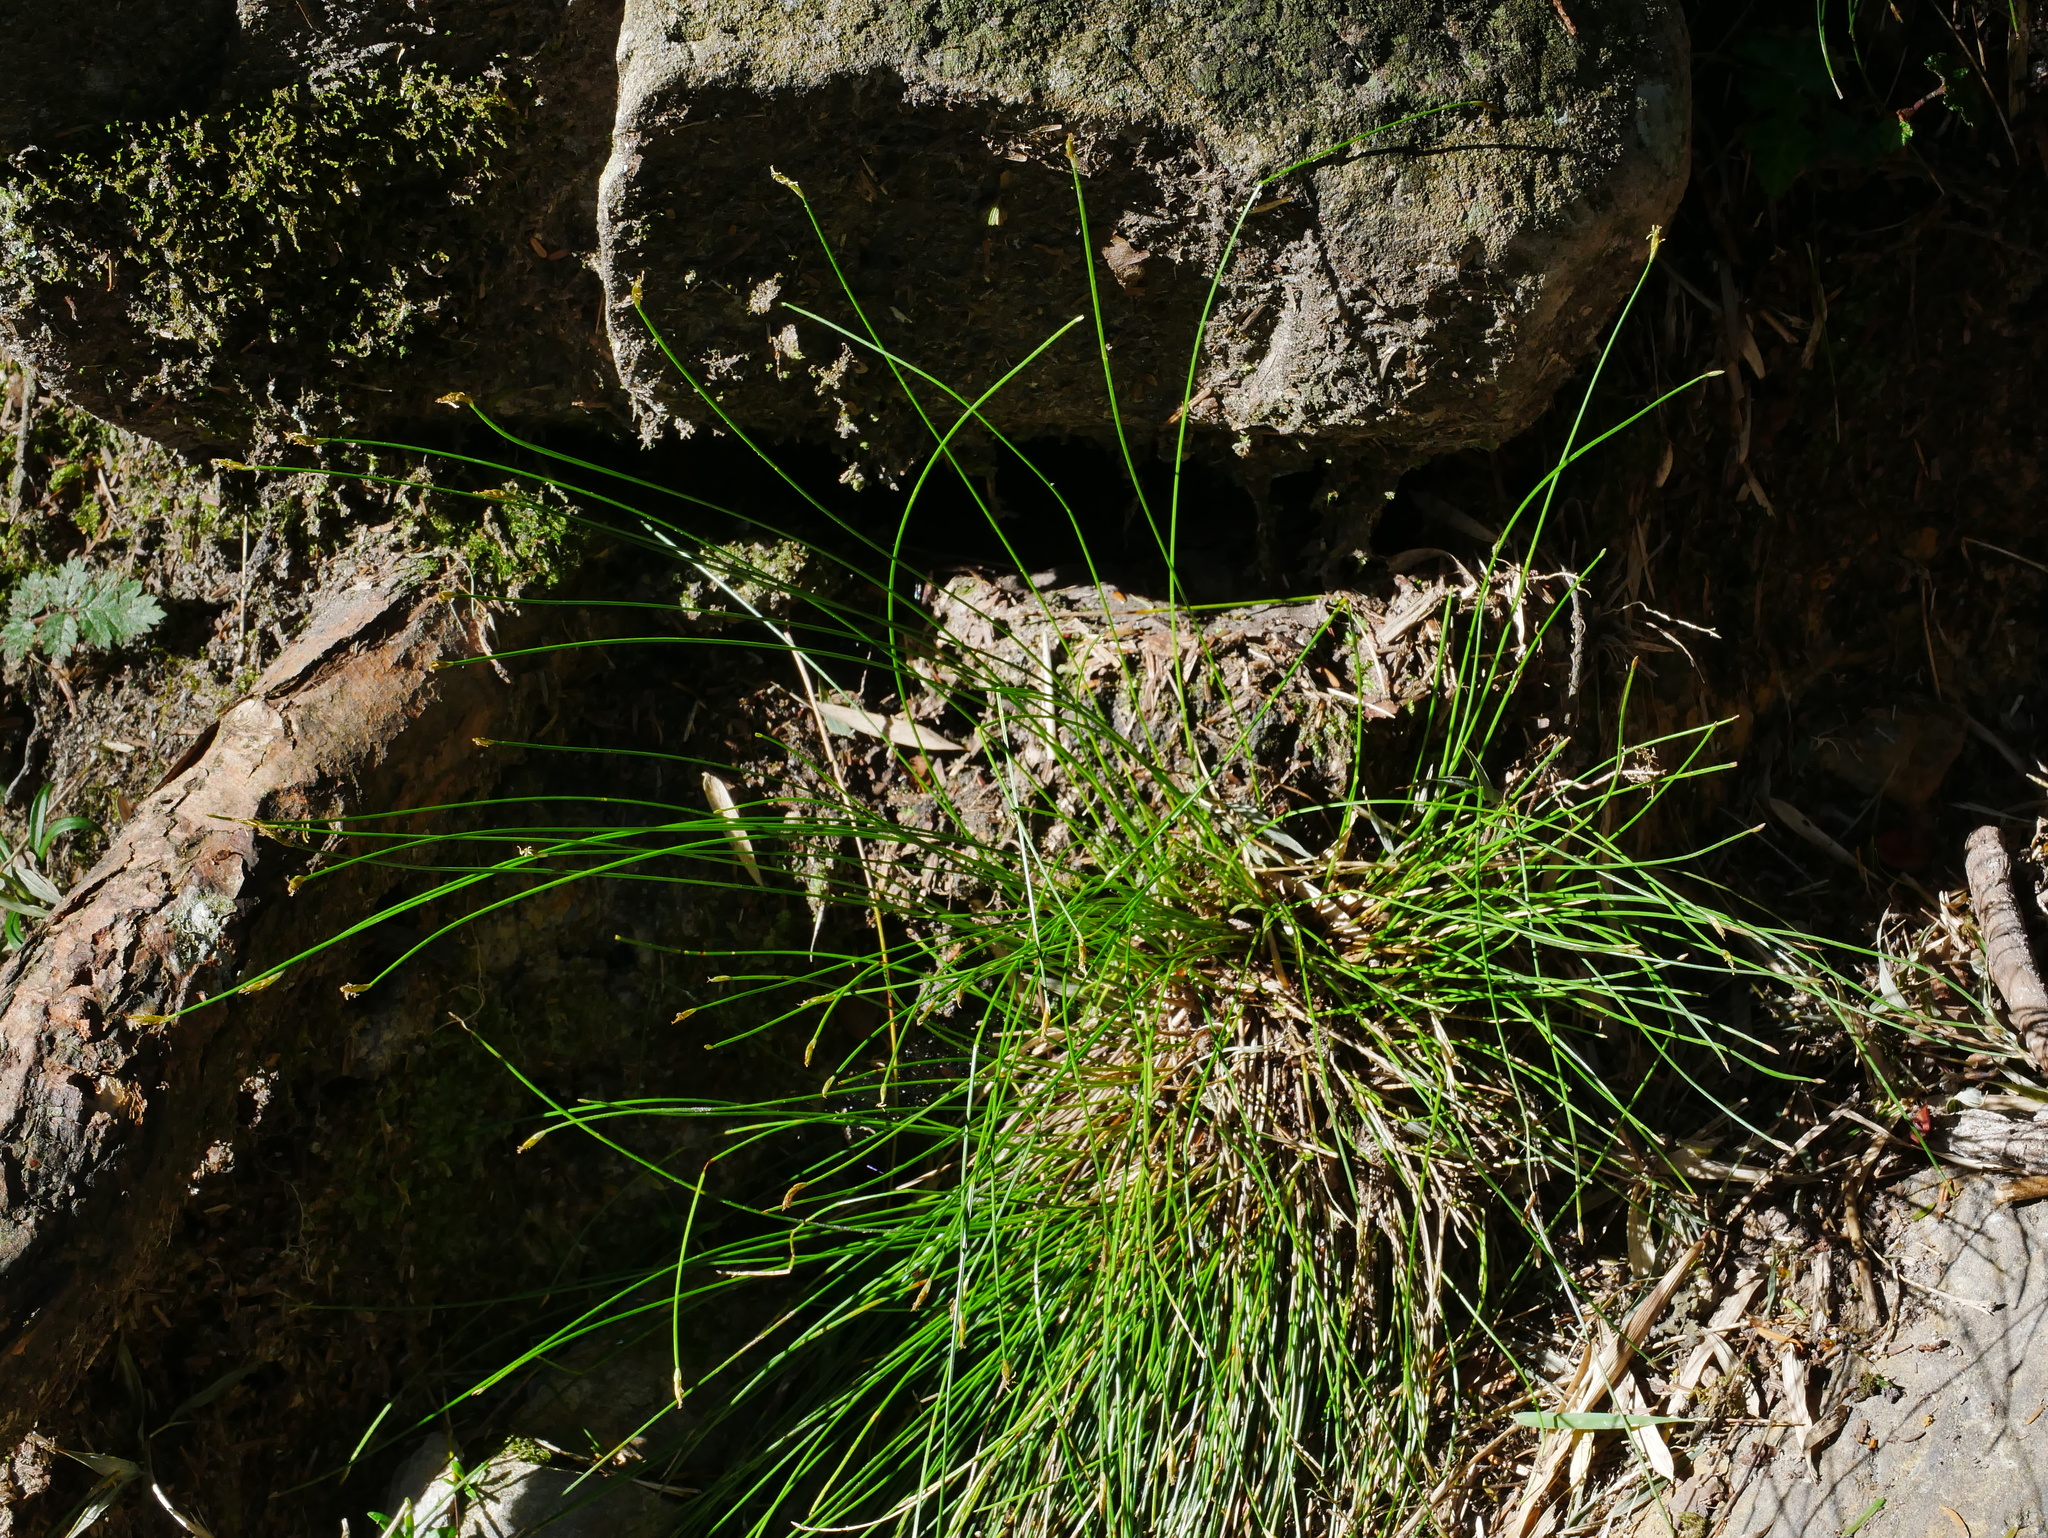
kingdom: Plantae
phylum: Tracheophyta
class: Liliopsida
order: Poales
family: Cyperaceae
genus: Trichophorum
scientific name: Trichophorum subcapitatum
